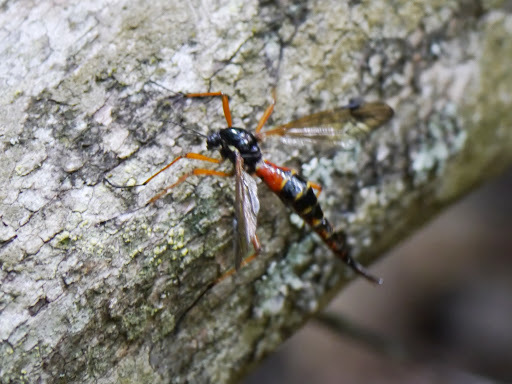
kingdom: Animalia
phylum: Arthropoda
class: Insecta
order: Diptera
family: Tipulidae
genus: Tanyptera
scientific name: Tanyptera dorsalis
